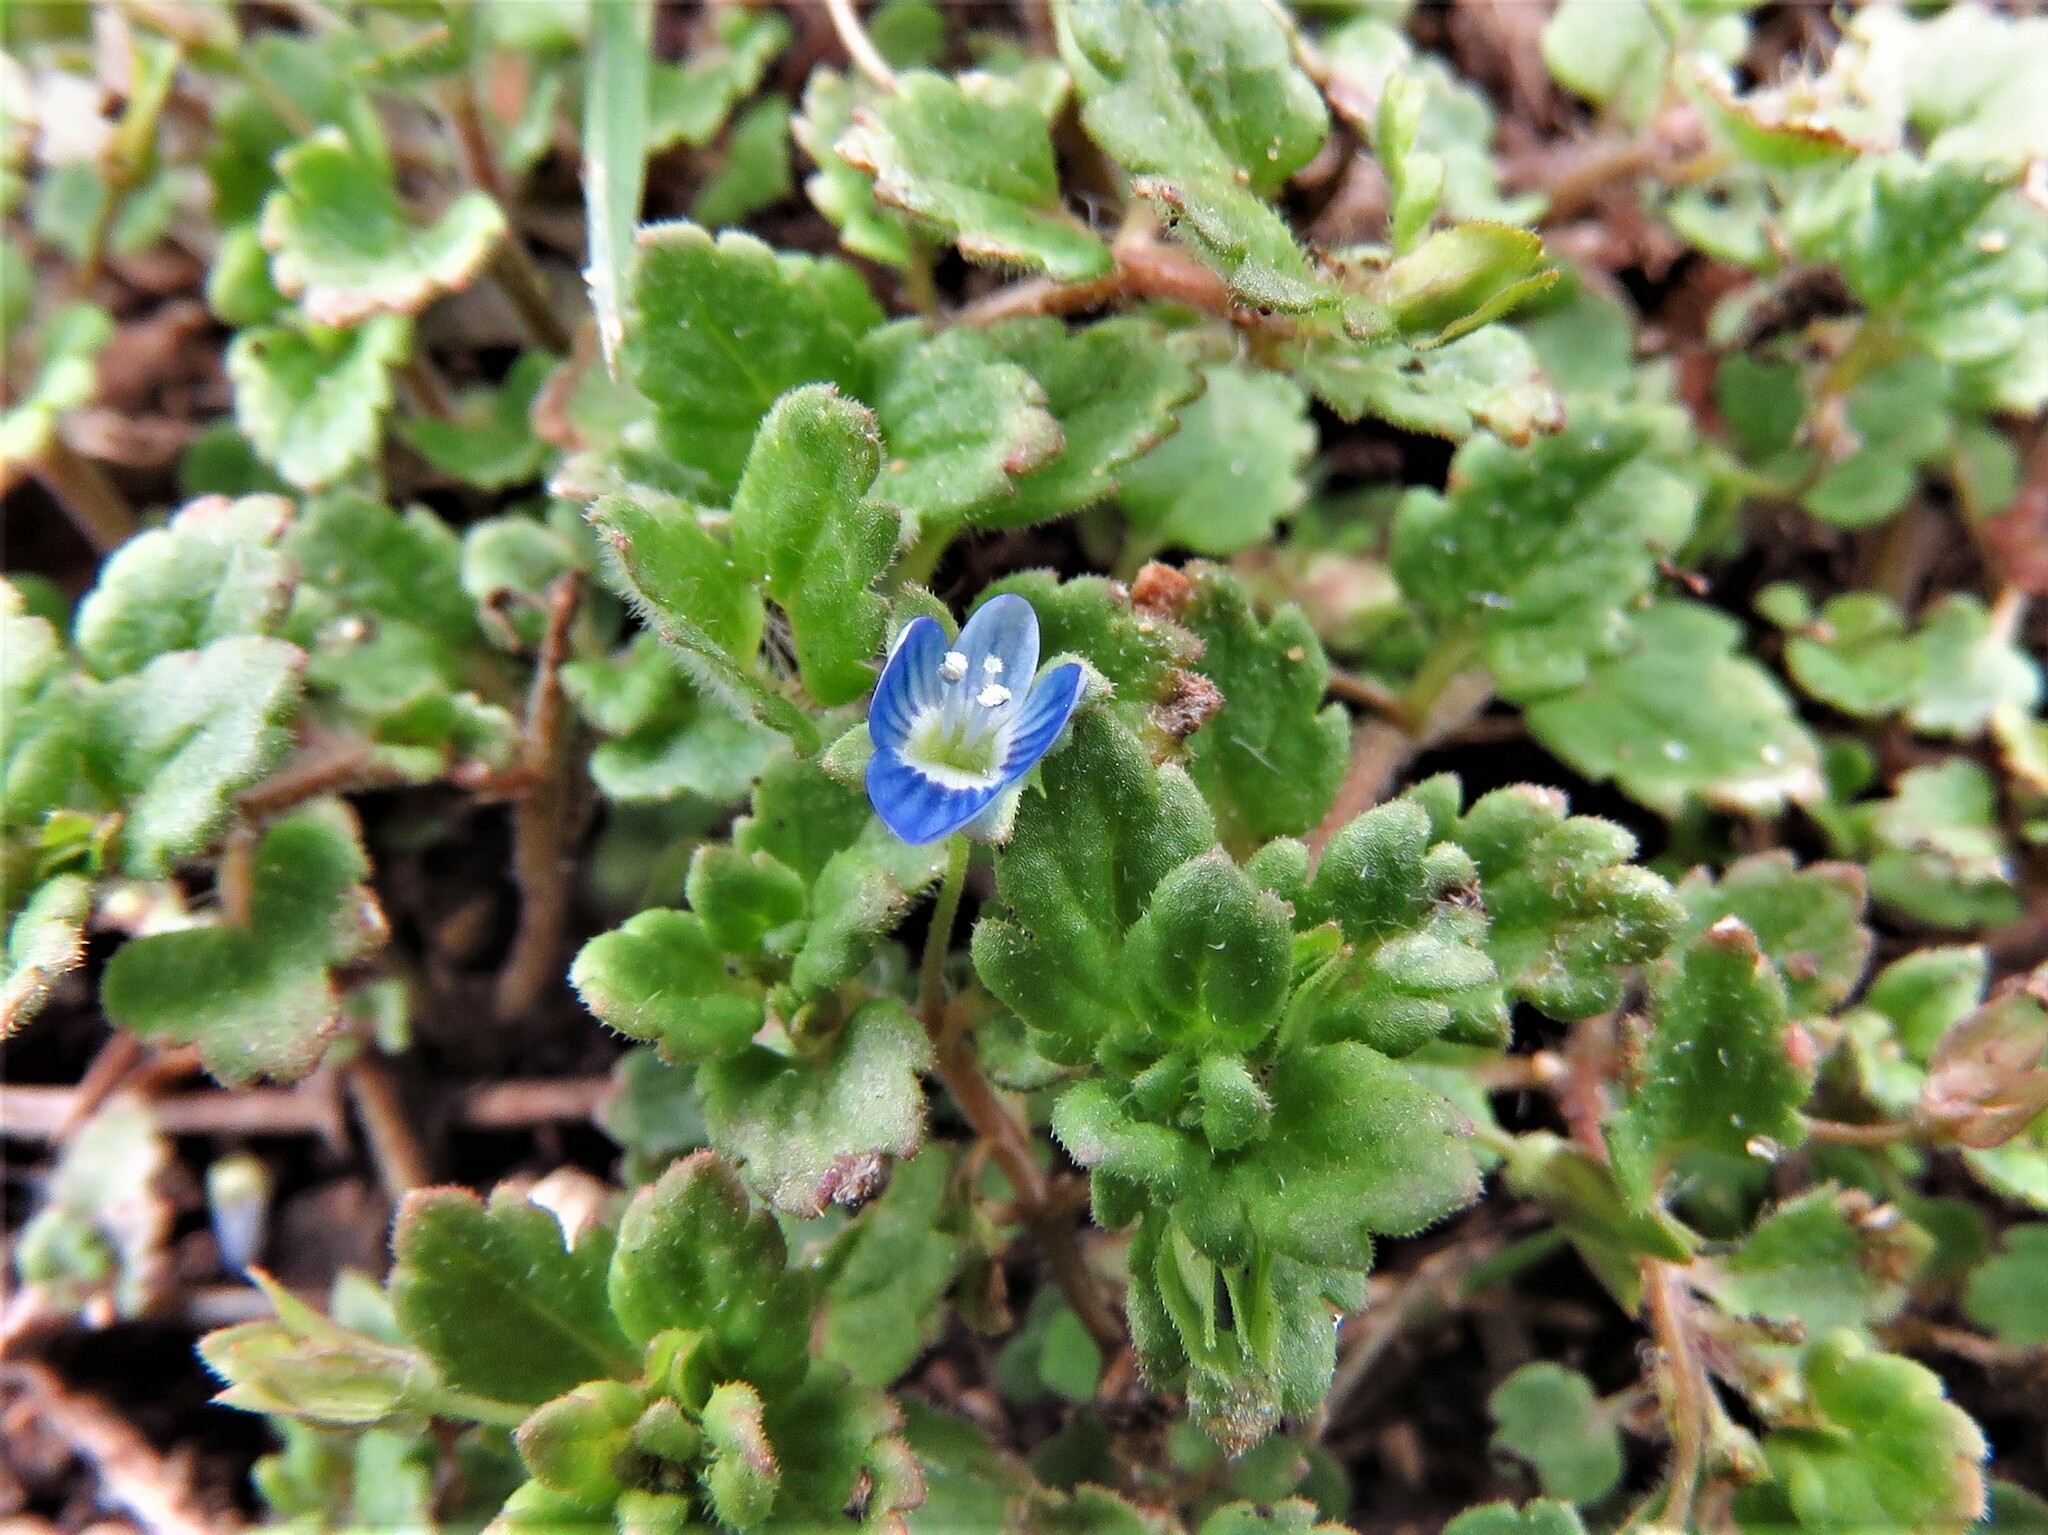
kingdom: Plantae
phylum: Tracheophyta
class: Magnoliopsida
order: Lamiales
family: Plantaginaceae
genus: Veronica
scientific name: Veronica polita
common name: Grey field-speedwell
